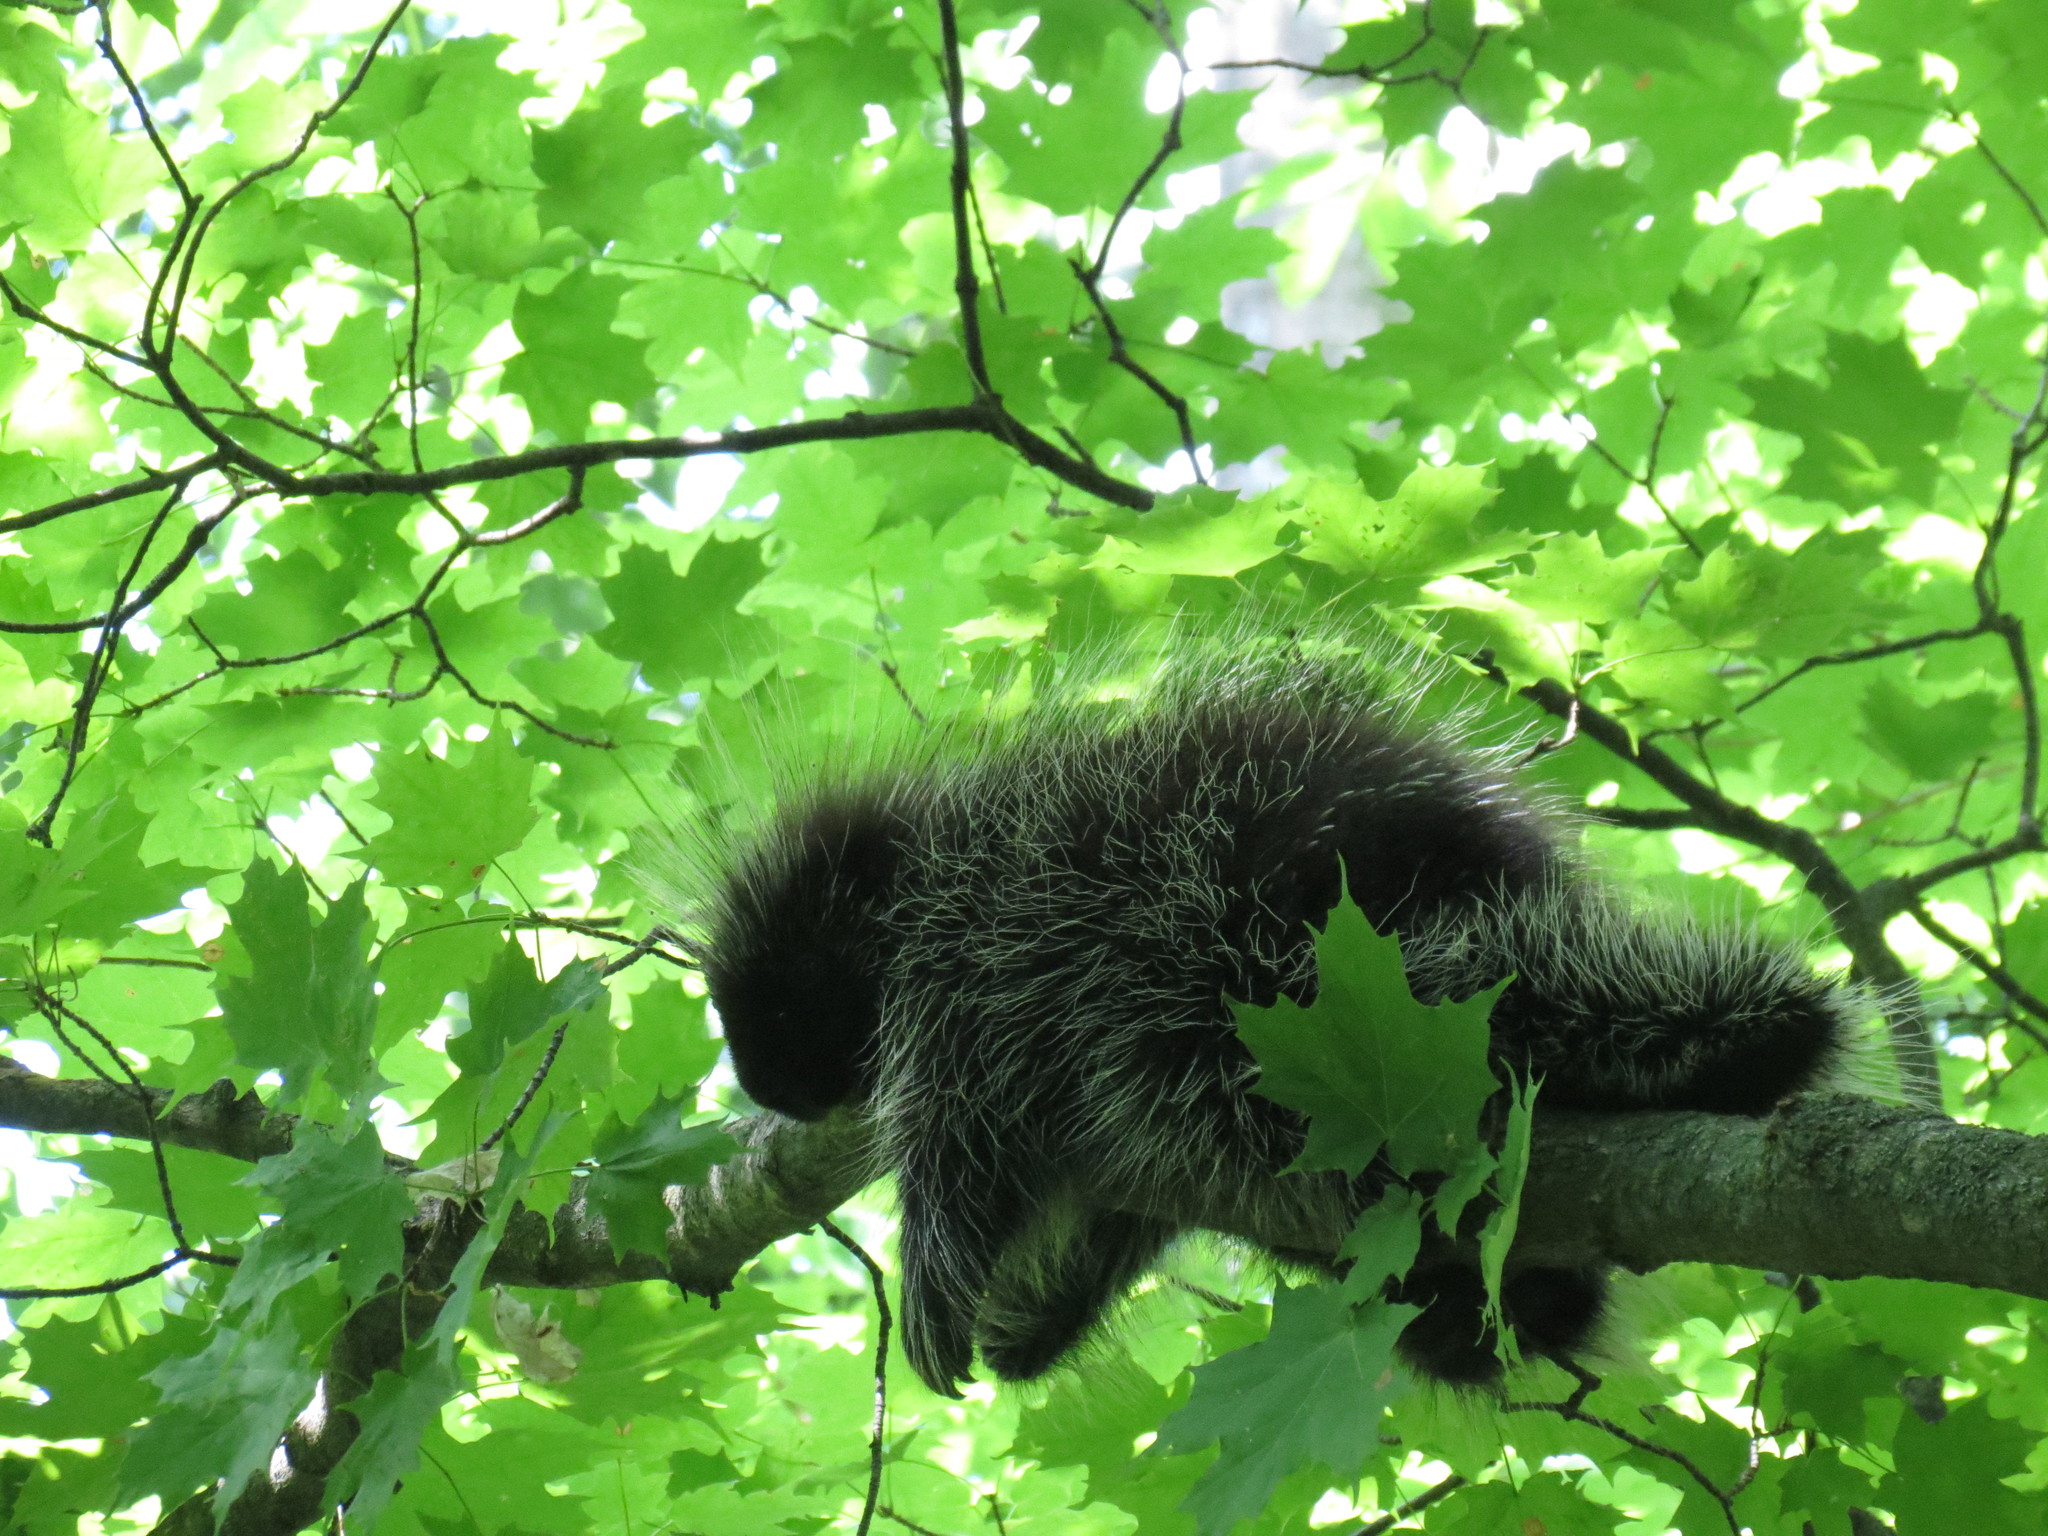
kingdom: Animalia
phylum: Chordata
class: Mammalia
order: Rodentia
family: Erethizontidae
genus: Erethizon
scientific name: Erethizon dorsatus
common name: North american porcupine
